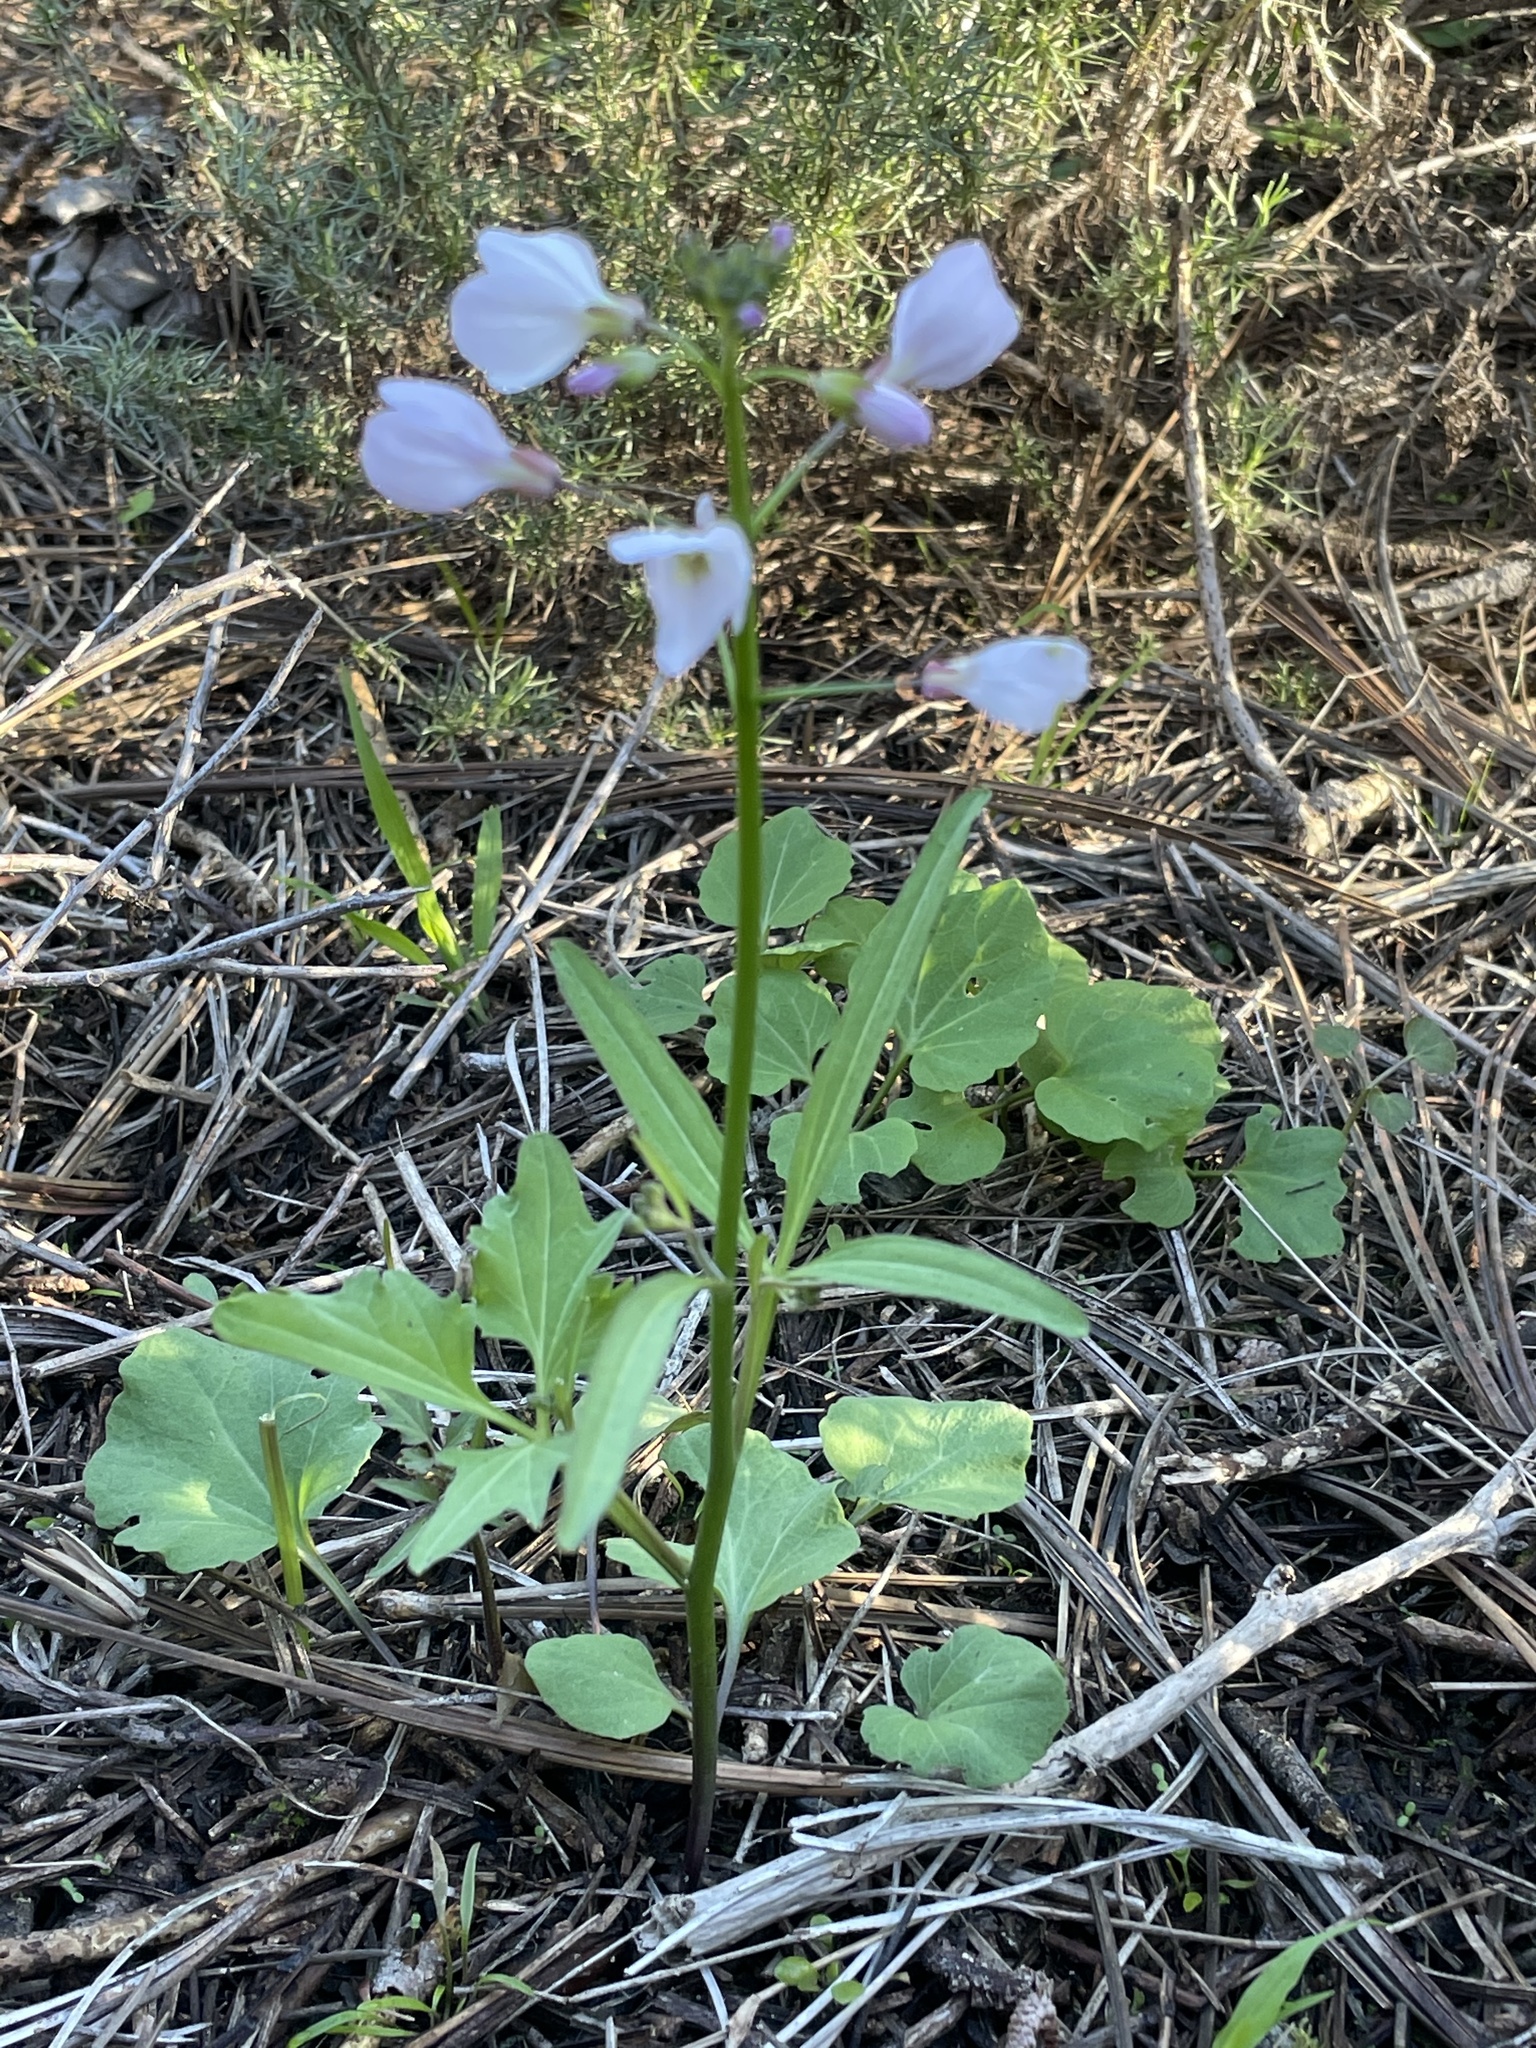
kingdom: Plantae
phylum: Tracheophyta
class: Magnoliopsida
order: Brassicales
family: Brassicaceae
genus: Cardamine
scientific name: Cardamine californica
